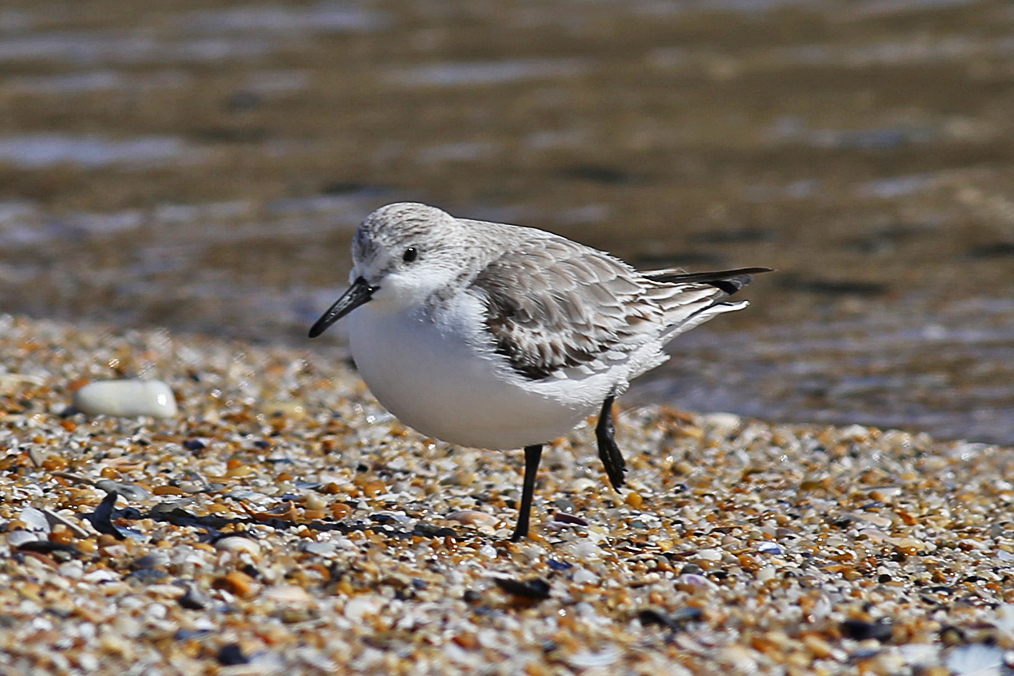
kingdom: Animalia
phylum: Chordata
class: Aves
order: Charadriiformes
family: Scolopacidae
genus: Calidris
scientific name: Calidris alba
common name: Sanderling
